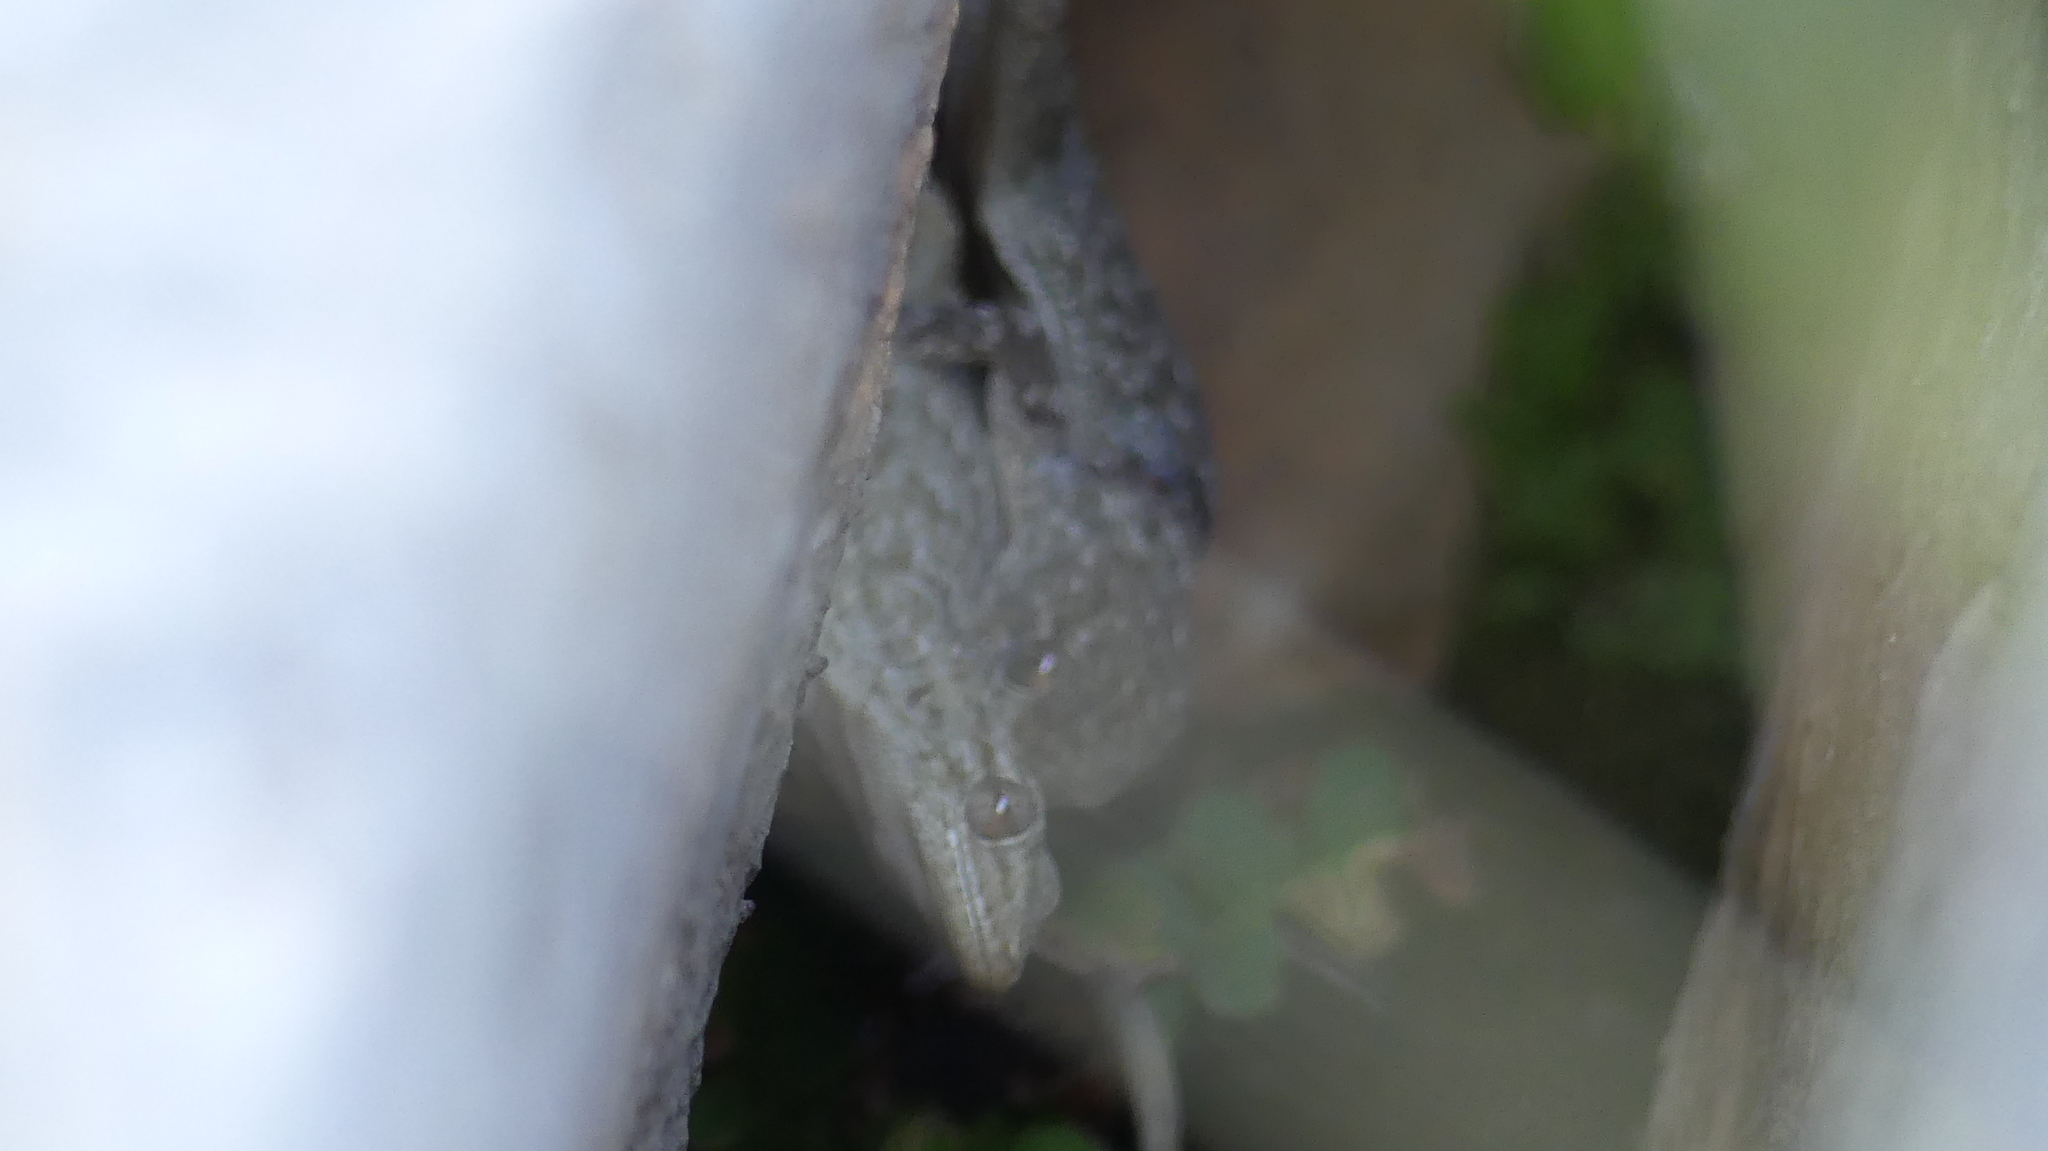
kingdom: Animalia
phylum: Chordata
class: Squamata
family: Phyllodactylidae
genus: Tarentola
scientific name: Tarentola mauritanica
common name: Moorish gecko
